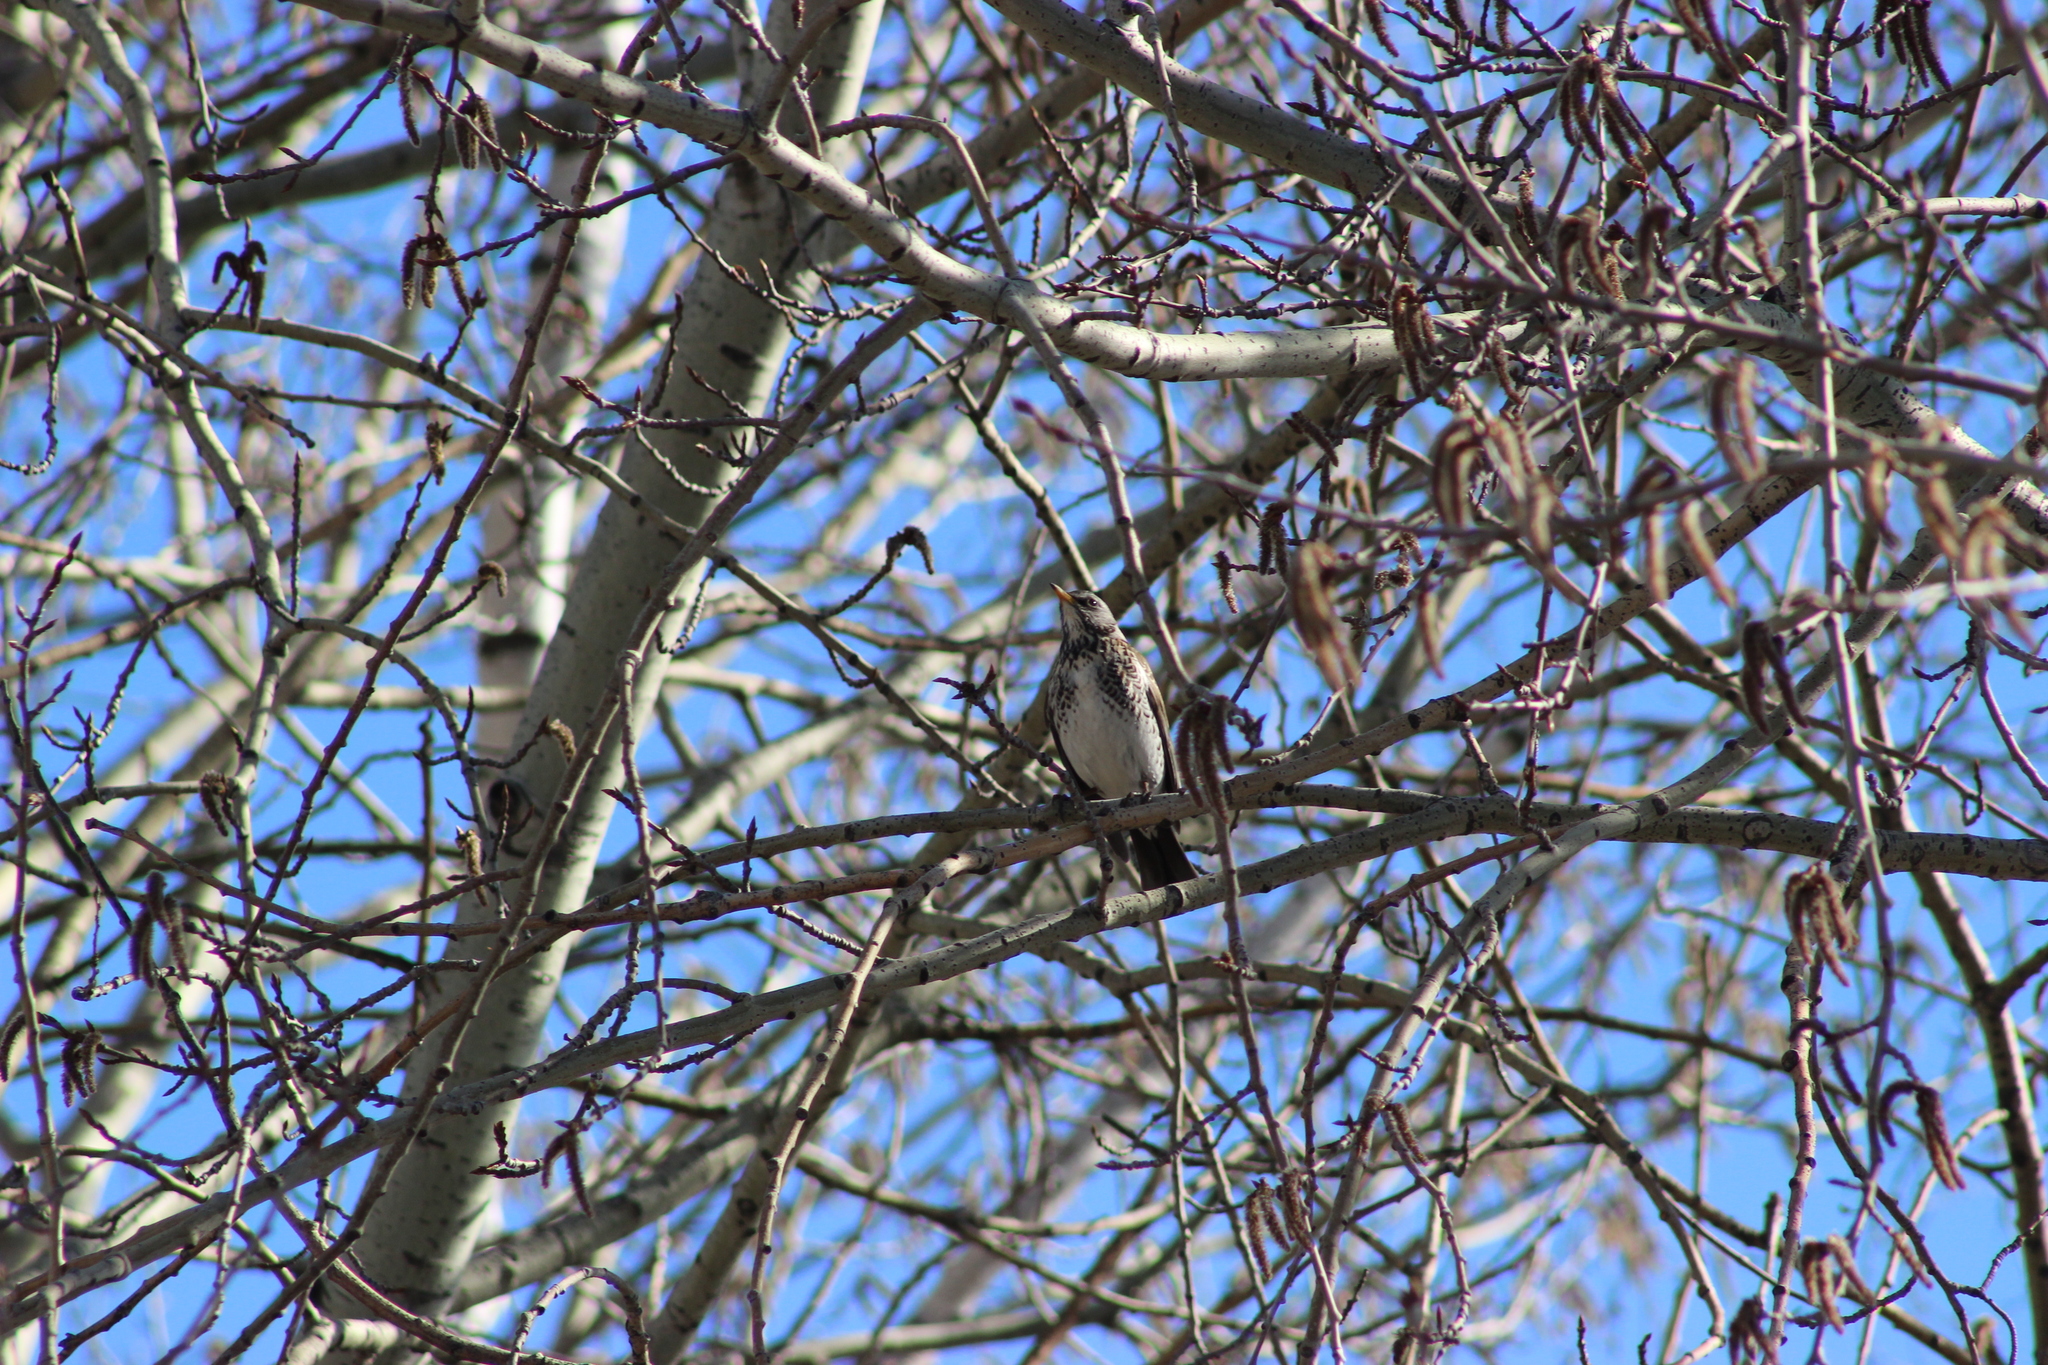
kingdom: Animalia
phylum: Chordata
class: Aves
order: Passeriformes
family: Turdidae
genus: Turdus
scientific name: Turdus pilaris
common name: Fieldfare
